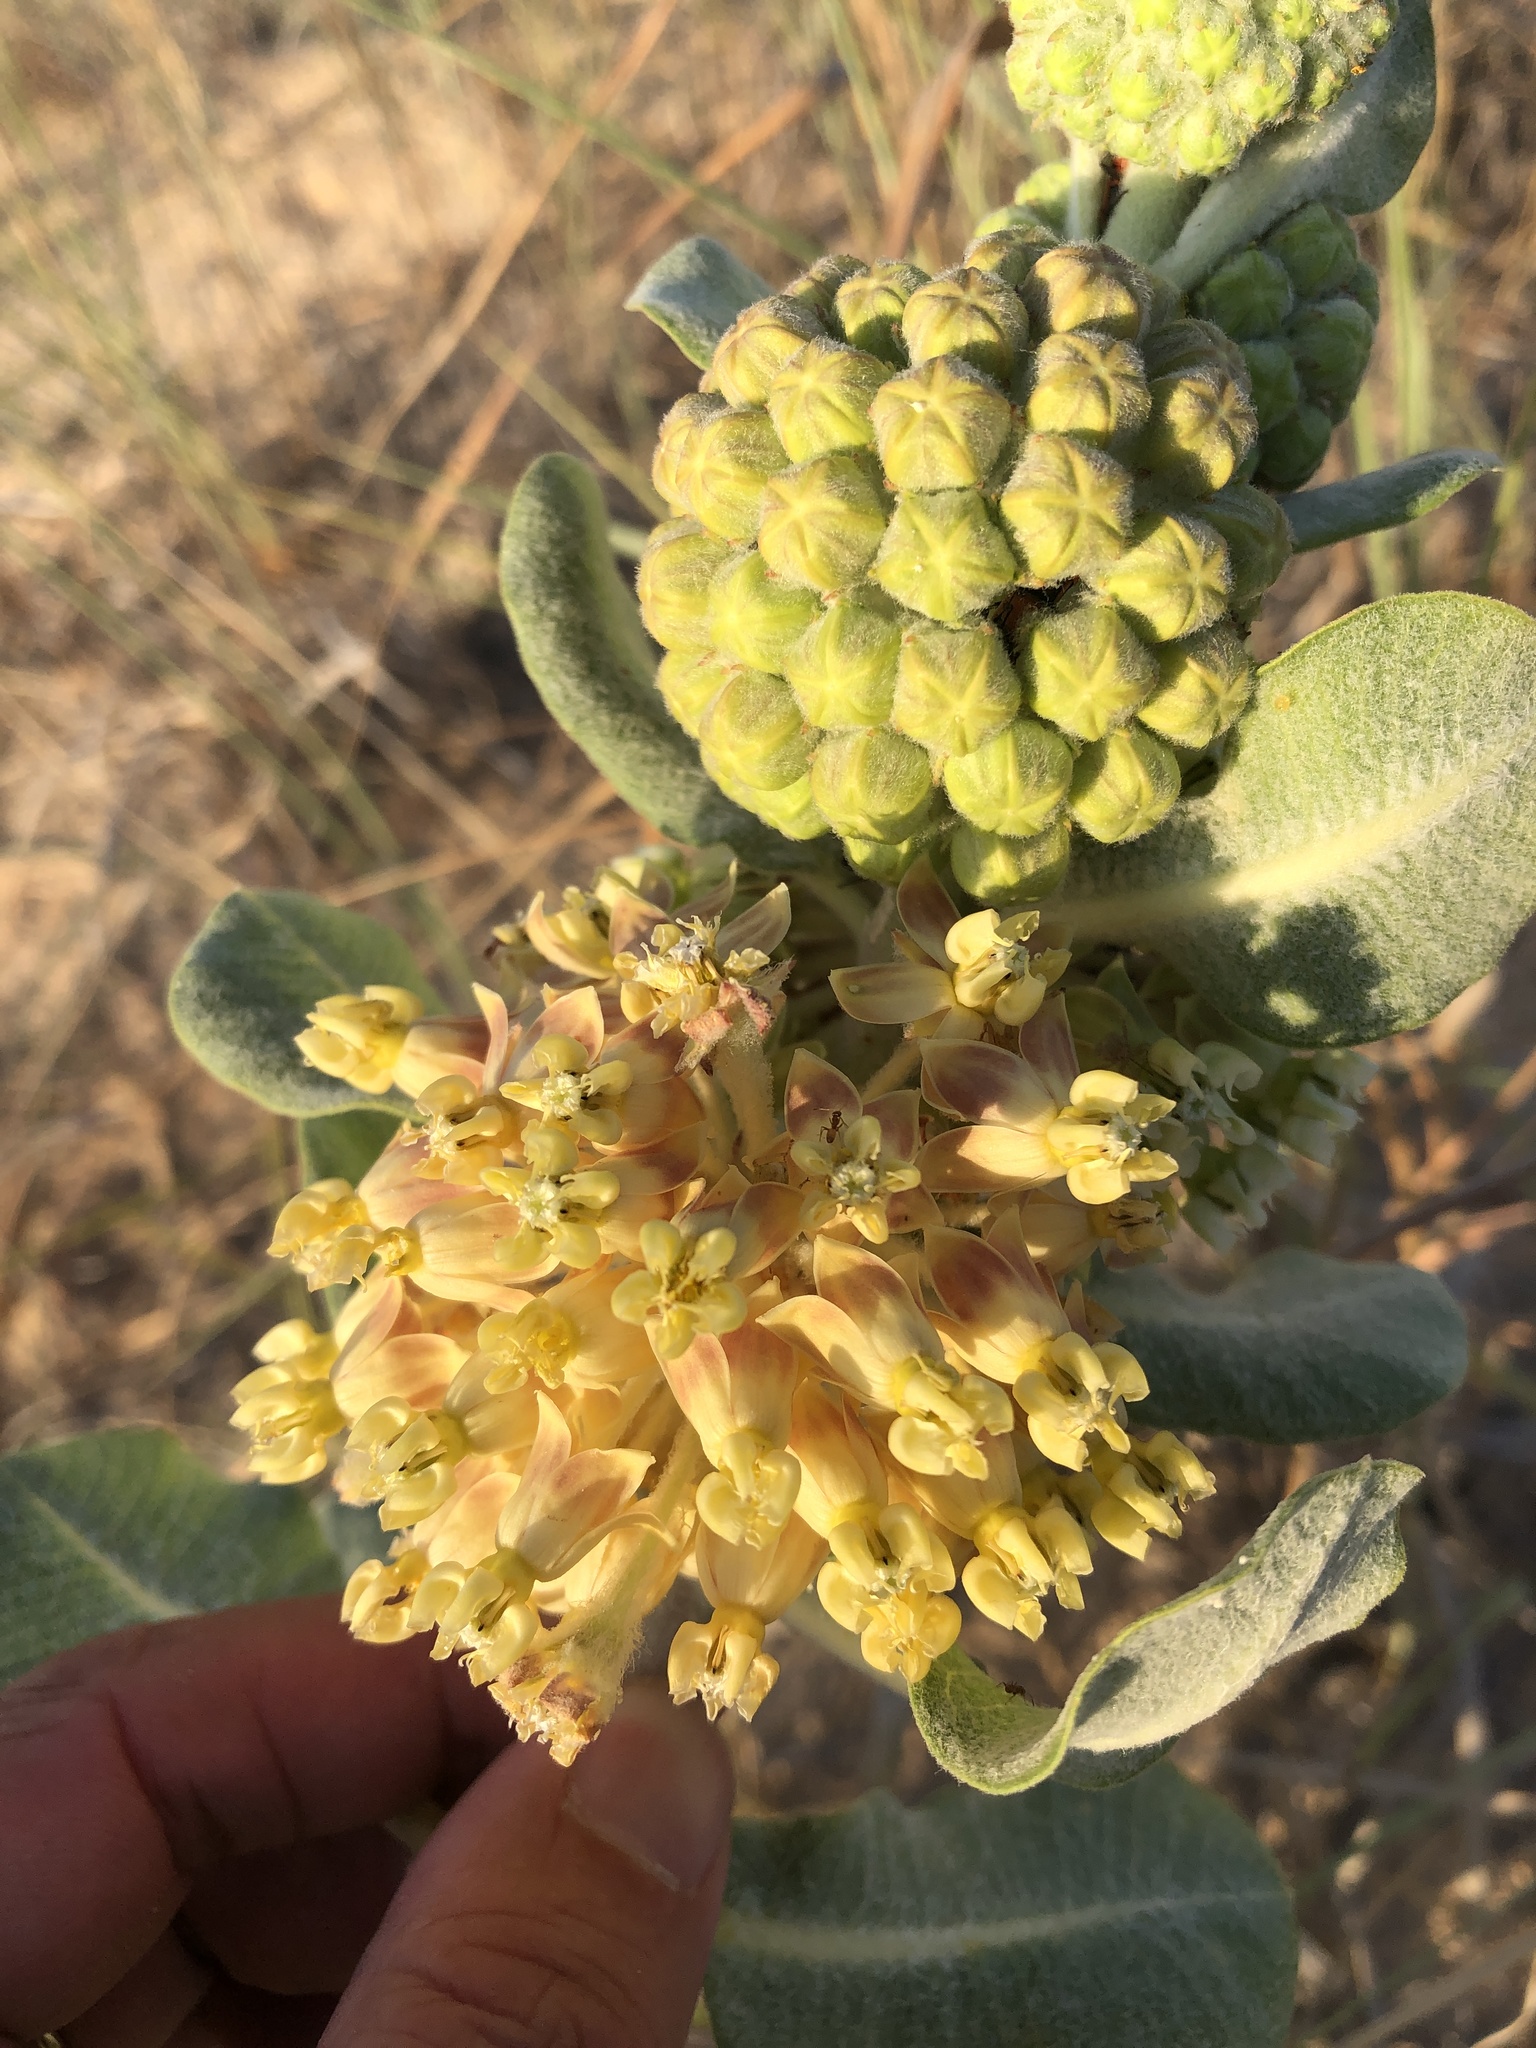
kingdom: Plantae
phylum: Tracheophyta
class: Magnoliopsida
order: Gentianales
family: Apocynaceae
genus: Asclepias
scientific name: Asclepias arenaria
